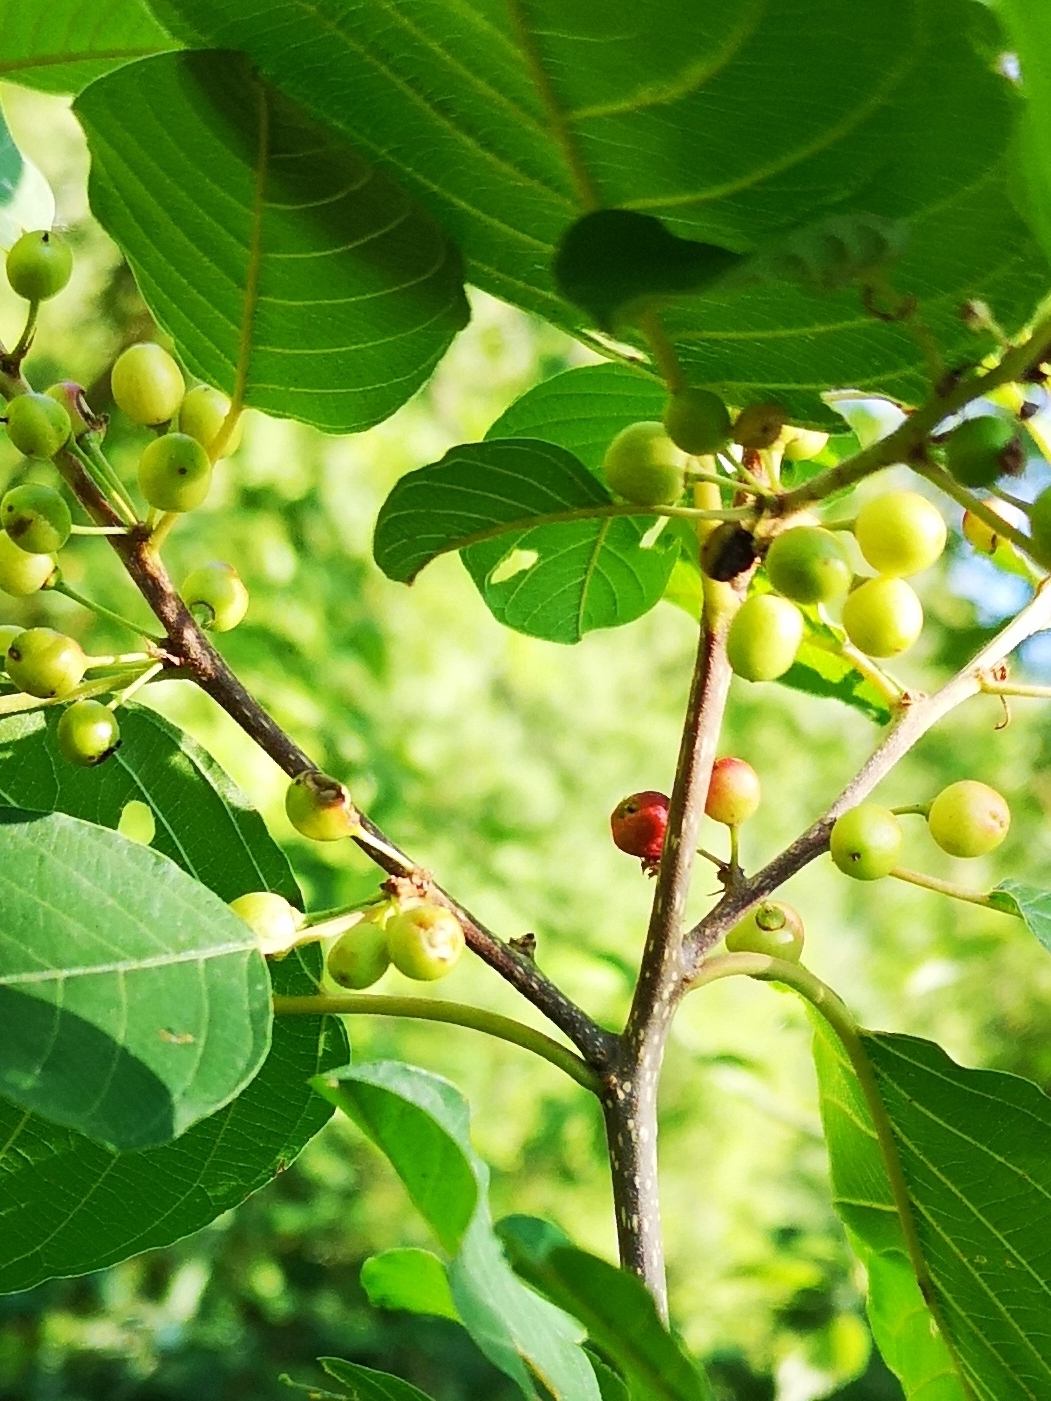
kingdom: Plantae
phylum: Tracheophyta
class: Magnoliopsida
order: Rosales
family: Rhamnaceae
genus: Frangula
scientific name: Frangula alnus
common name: Alder buckthorn
